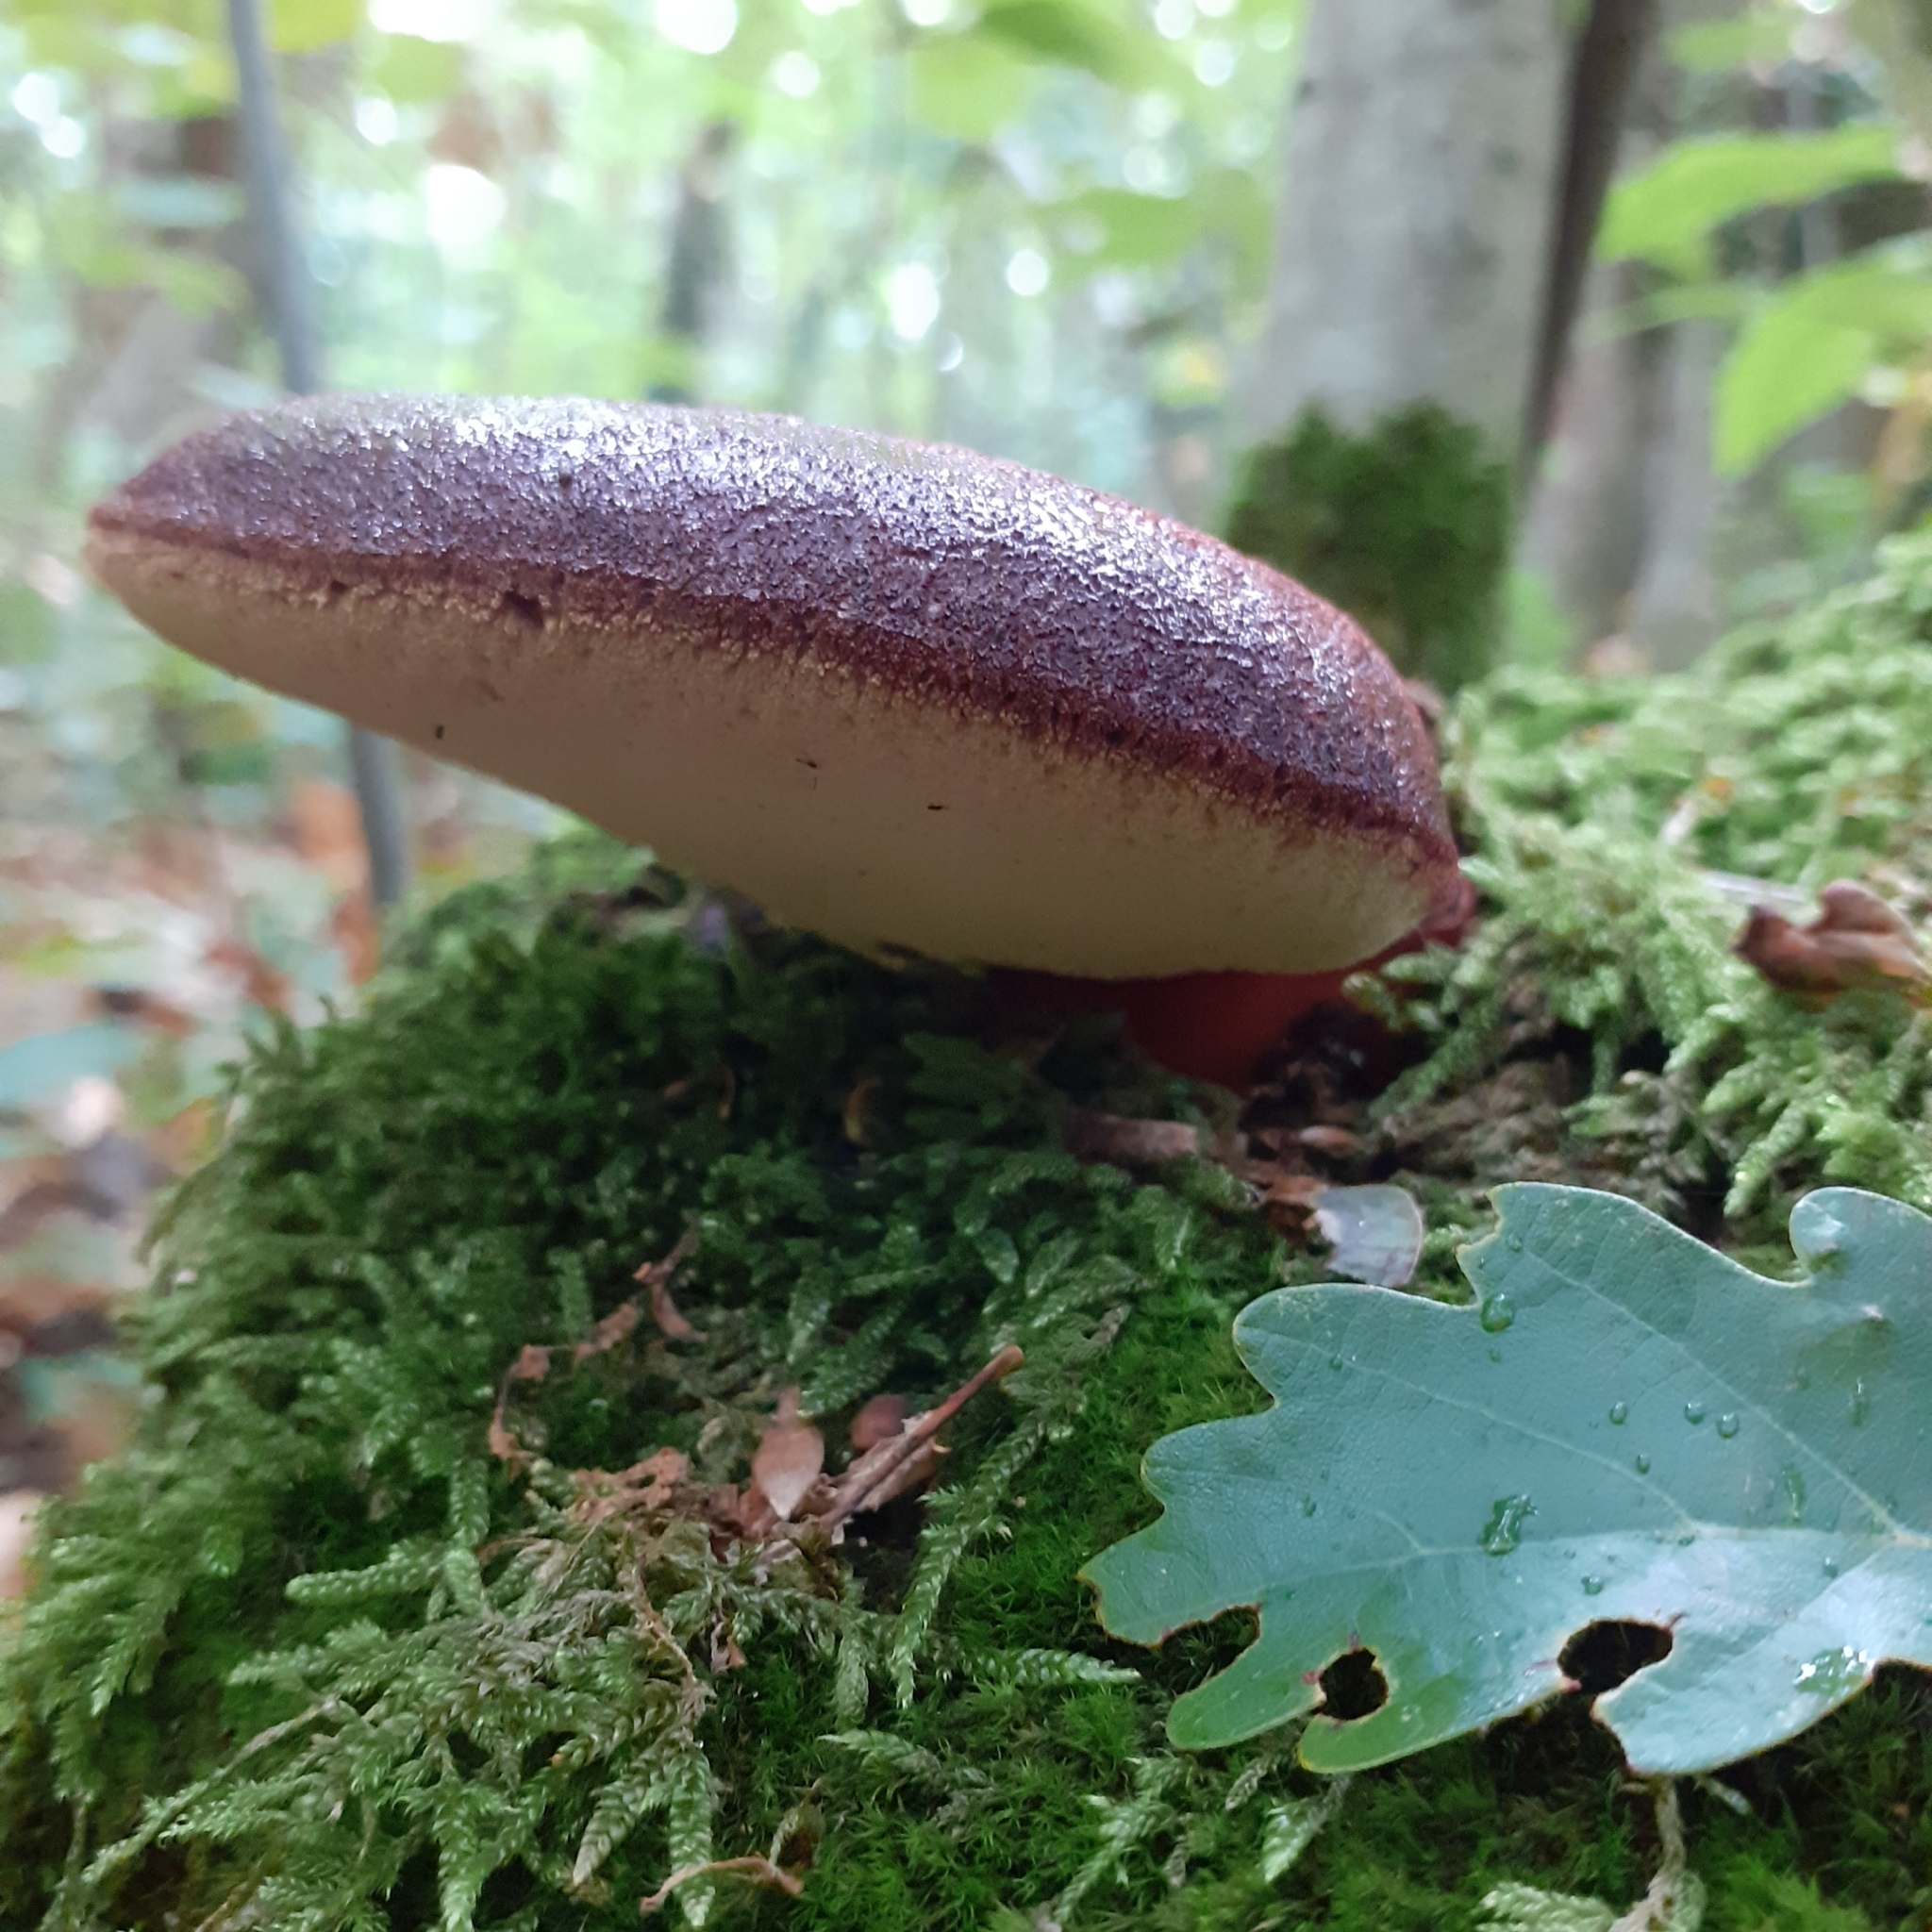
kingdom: Fungi
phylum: Basidiomycota
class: Agaricomycetes
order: Agaricales
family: Fistulinaceae
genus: Fistulina
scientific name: Fistulina hepatica
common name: Beef-steak fungus
